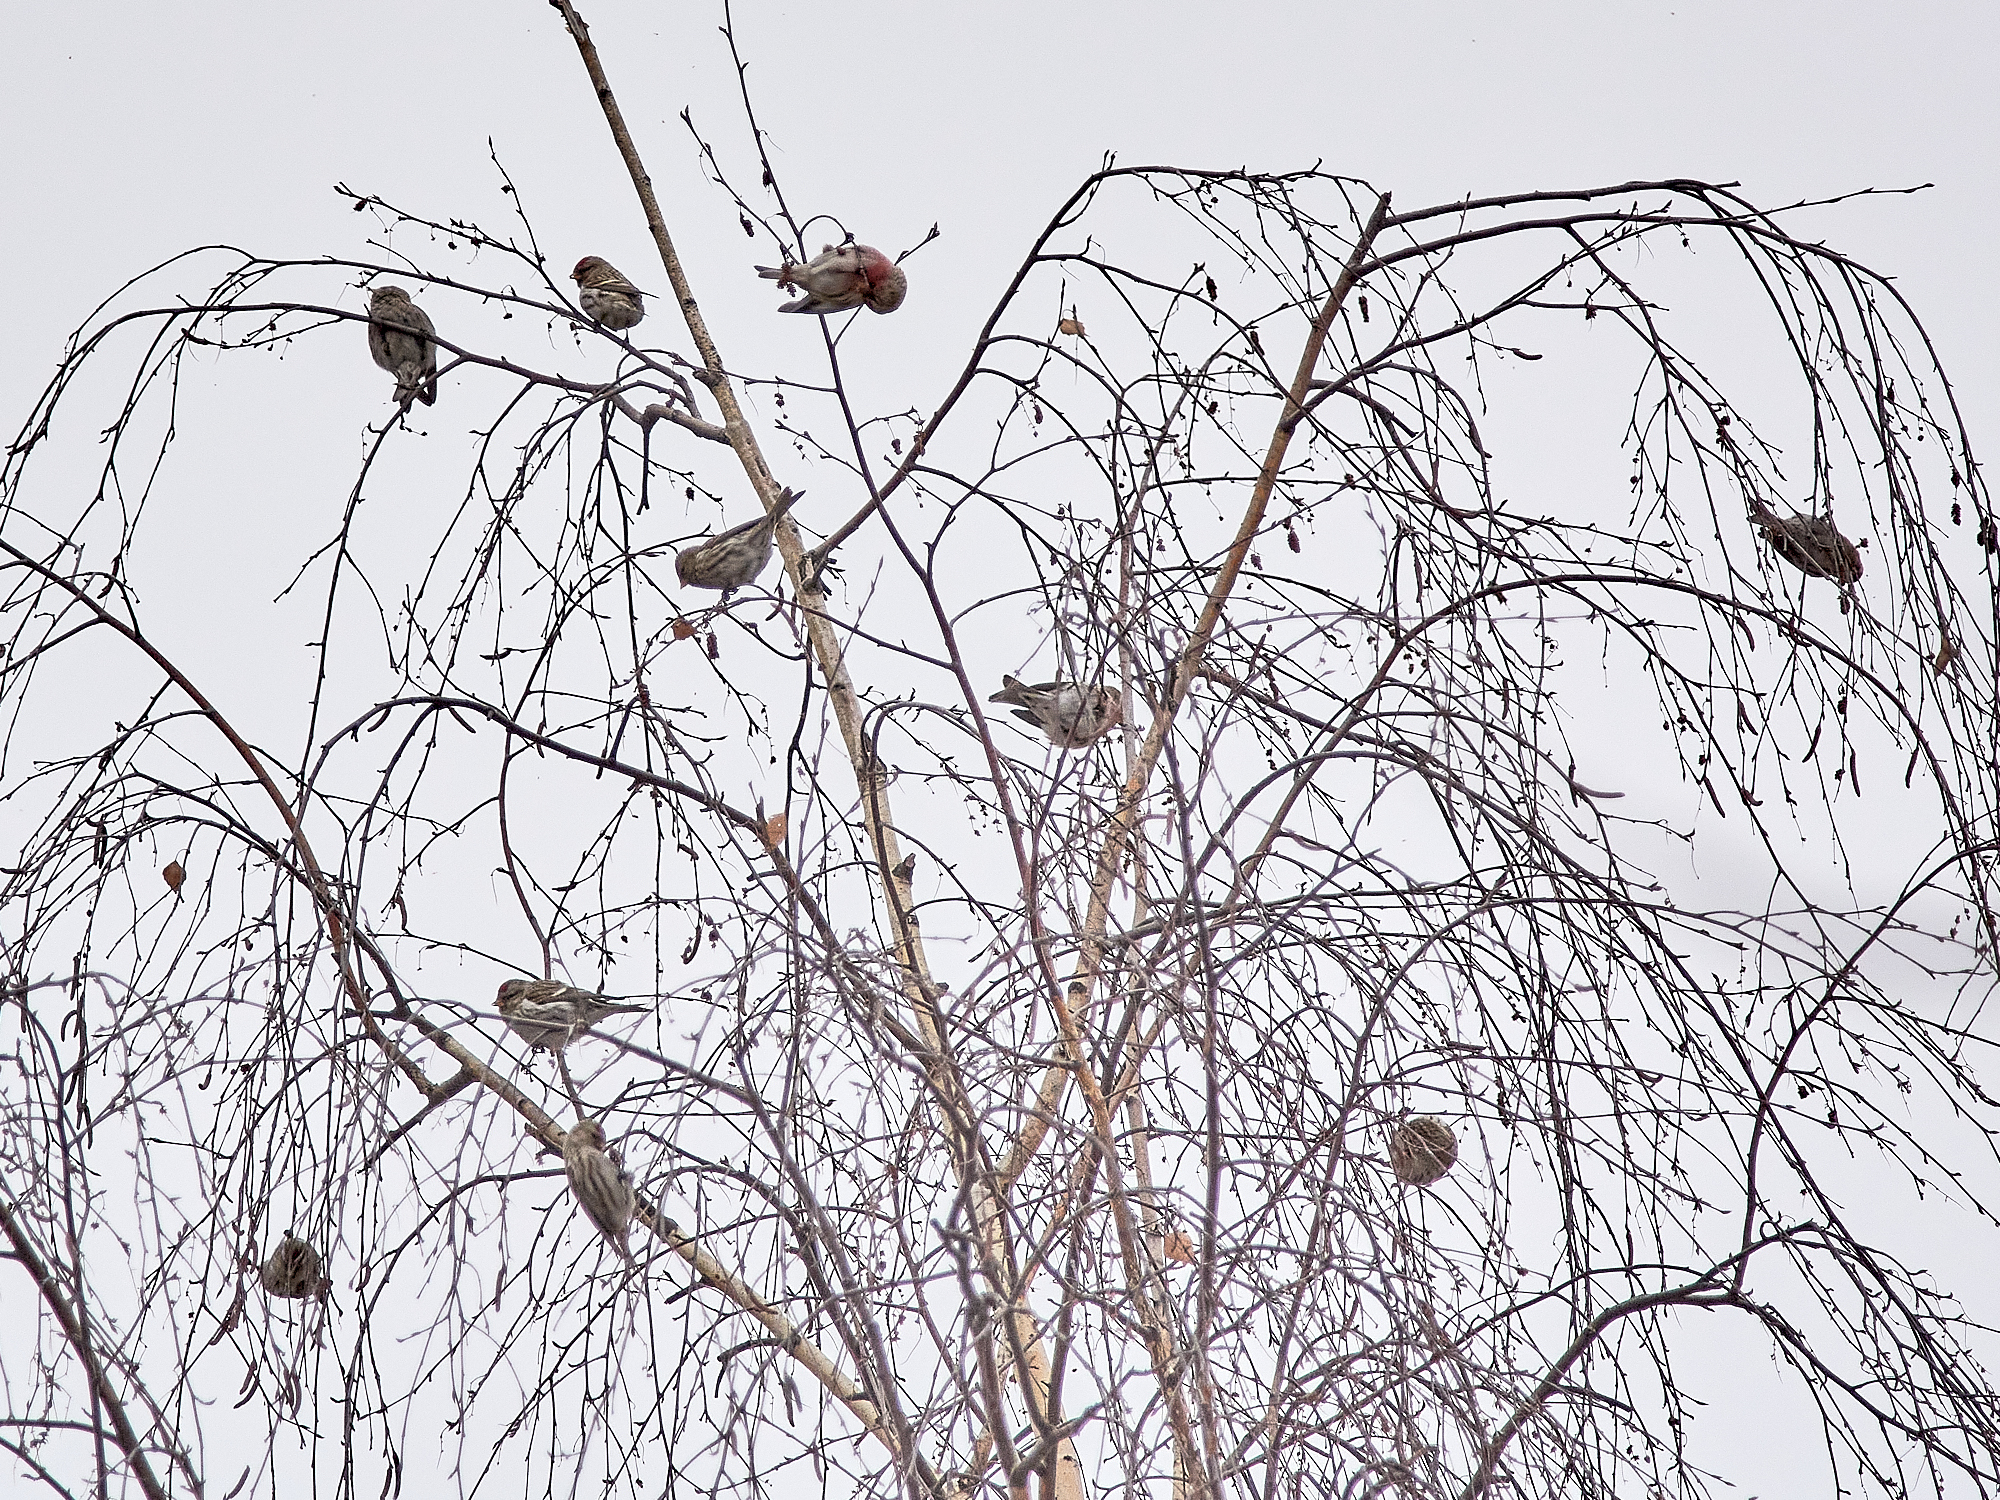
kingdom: Animalia
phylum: Chordata
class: Aves
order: Passeriformes
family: Fringillidae
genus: Acanthis
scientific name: Acanthis flammea
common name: Common redpoll
